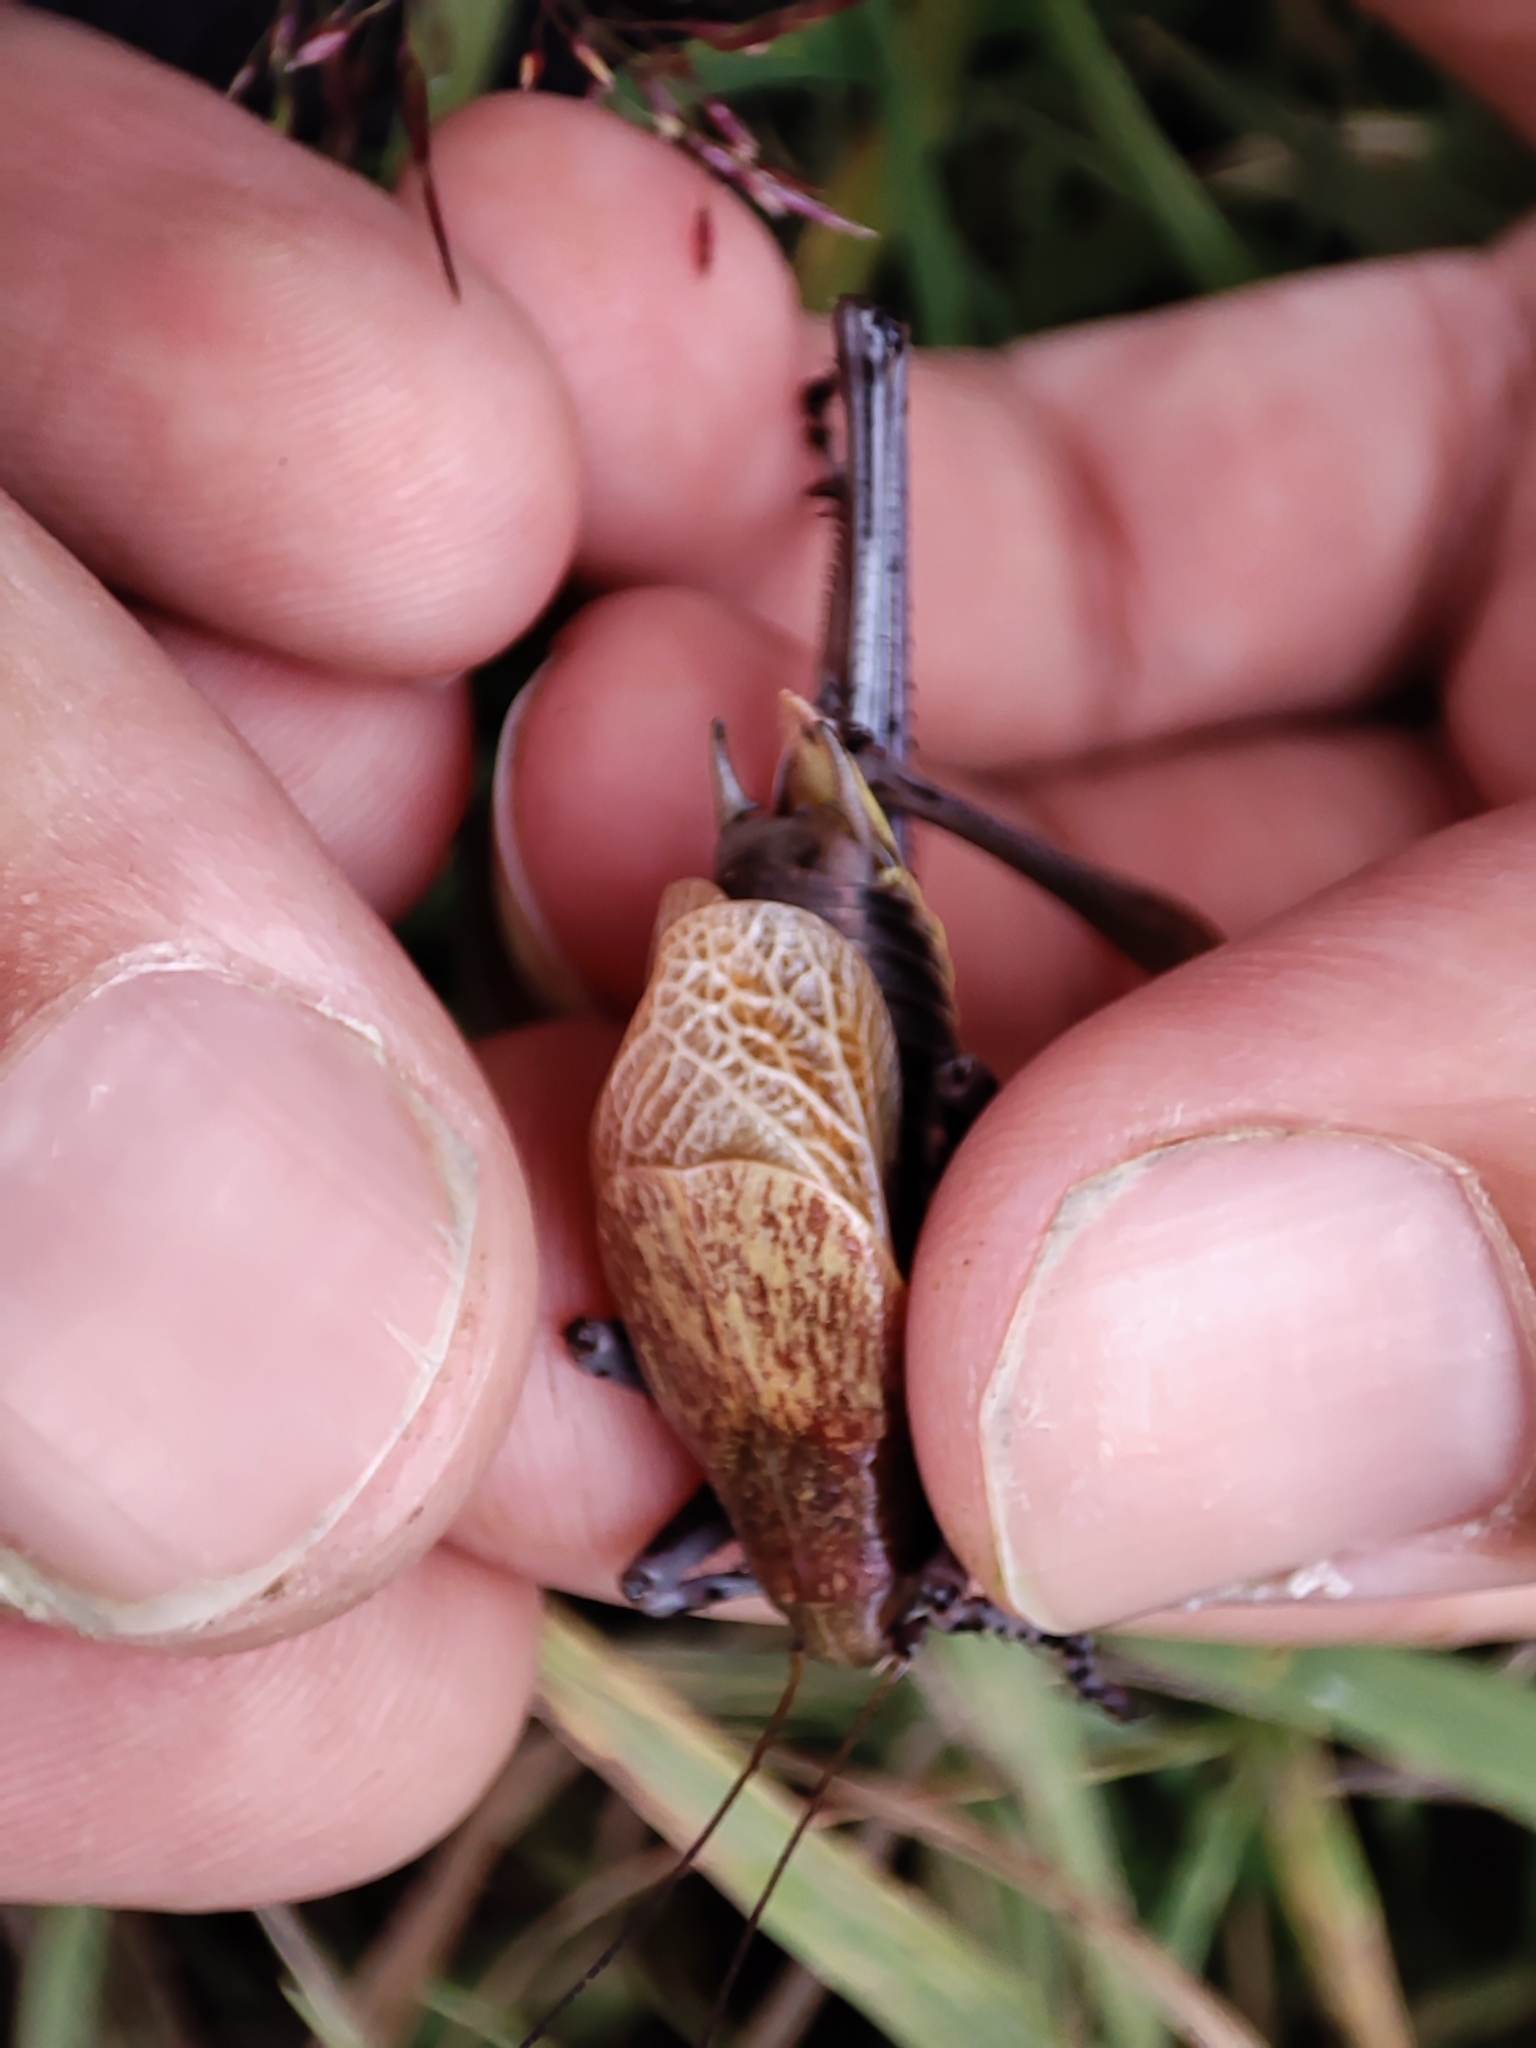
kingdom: Animalia
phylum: Arthropoda
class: Insecta
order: Orthoptera
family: Tettigoniidae
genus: Psorodonotus
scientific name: Psorodonotus specularis
